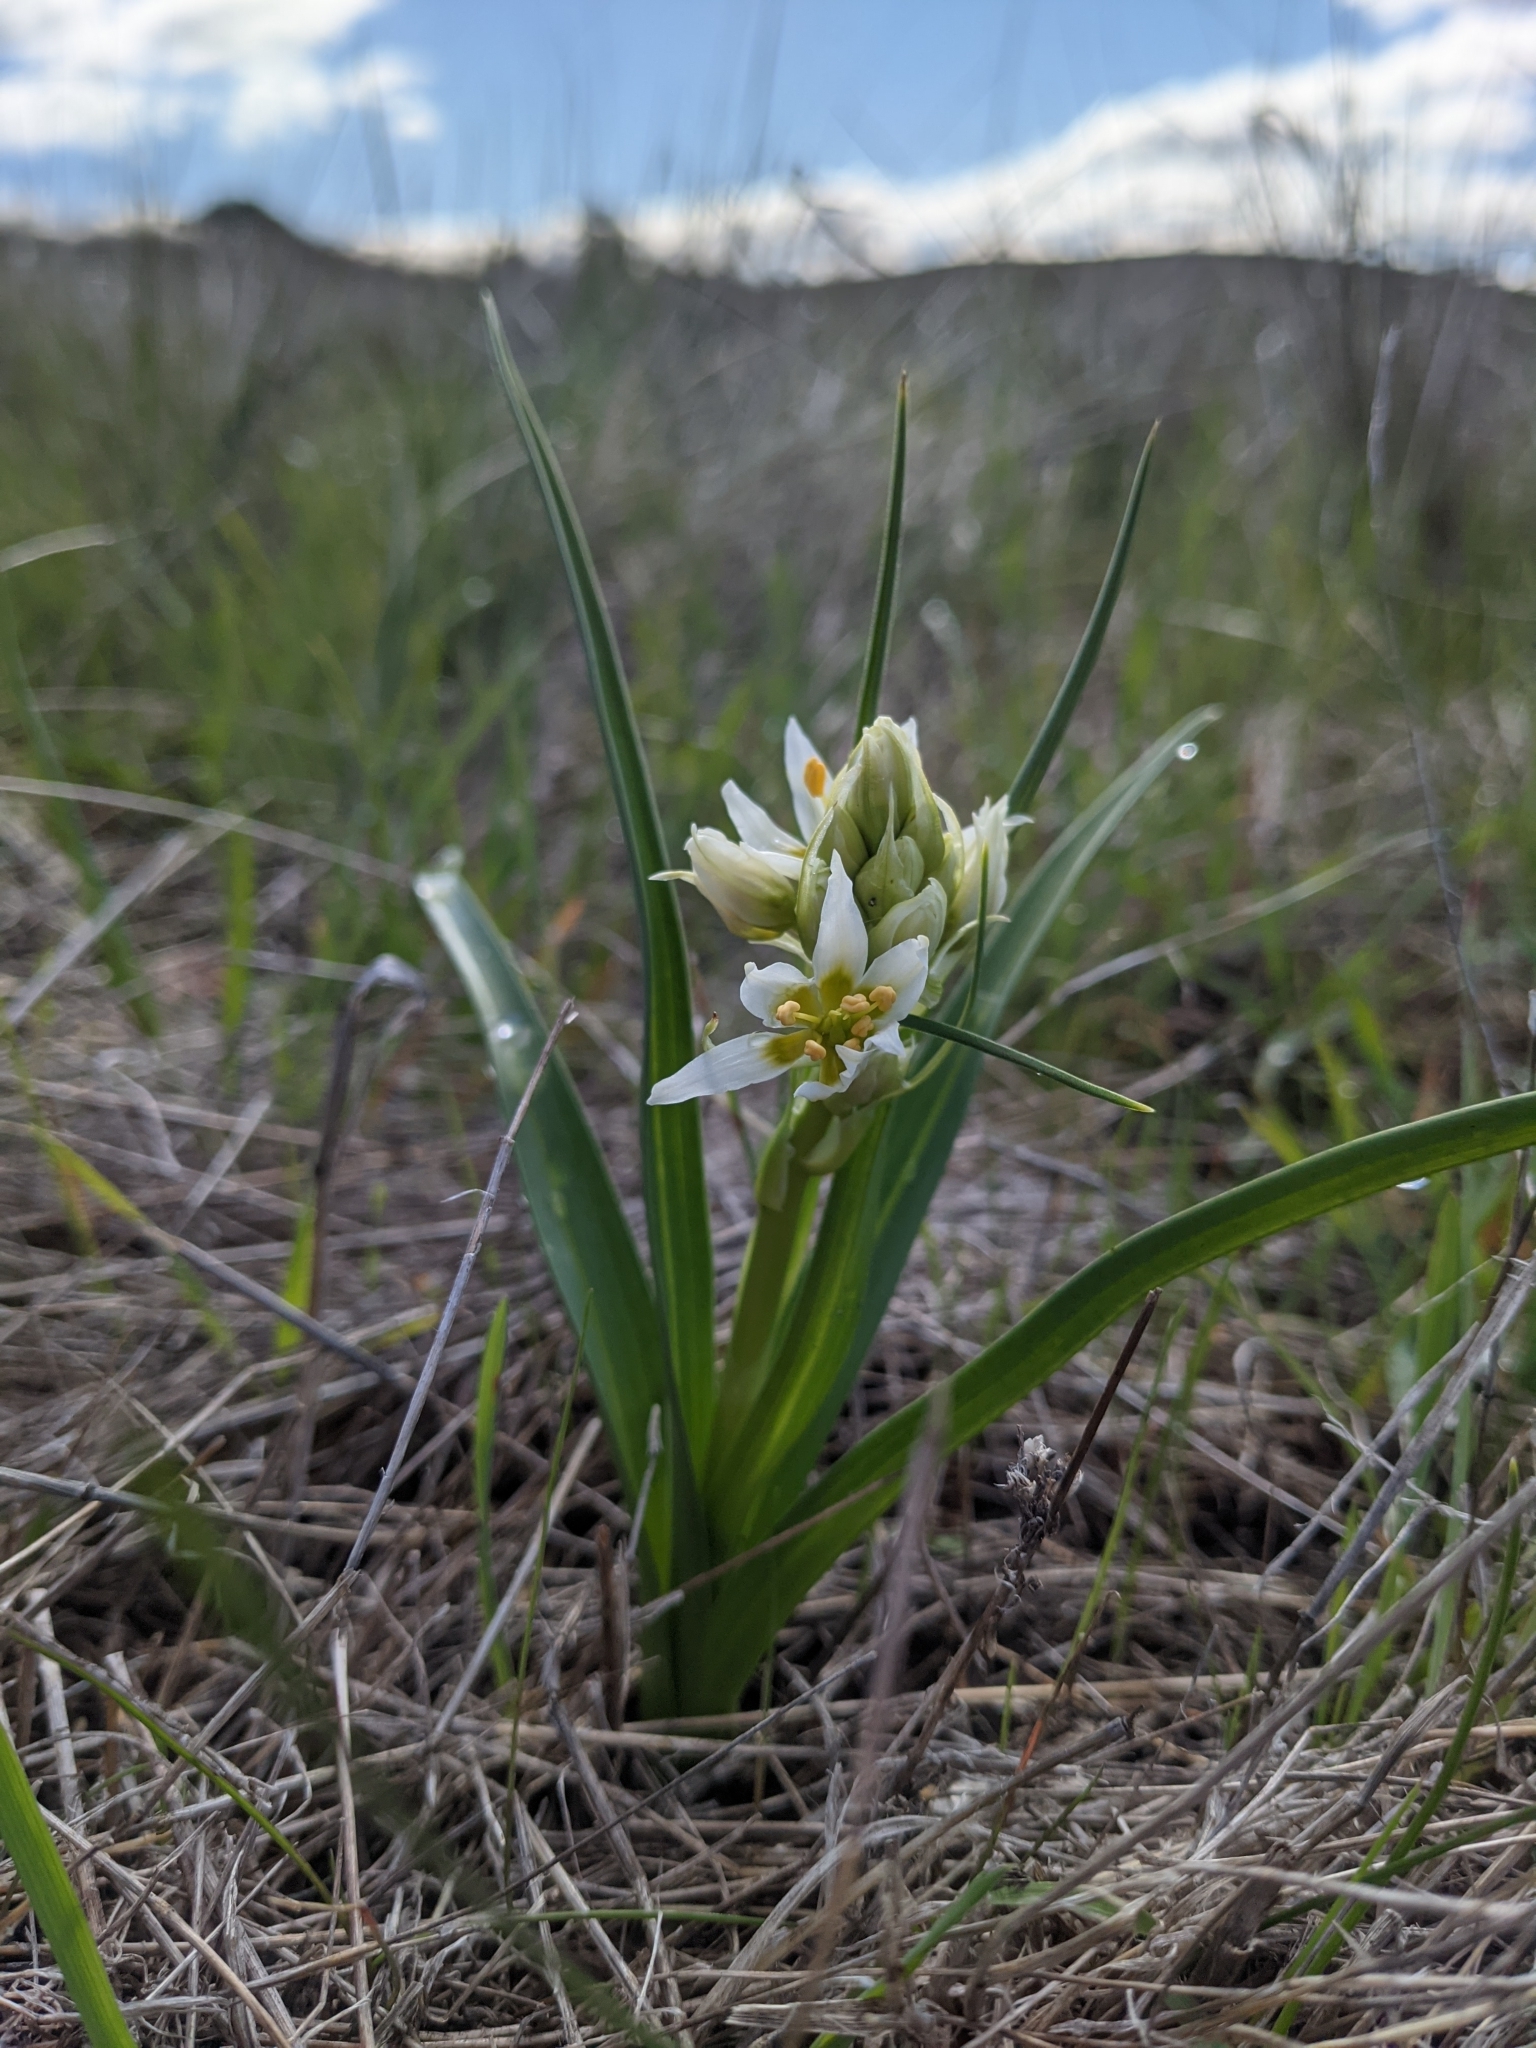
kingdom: Plantae
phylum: Tracheophyta
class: Liliopsida
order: Liliales
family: Melanthiaceae
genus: Toxicoscordion
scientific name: Toxicoscordion fremontii
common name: Fremont's death camas
